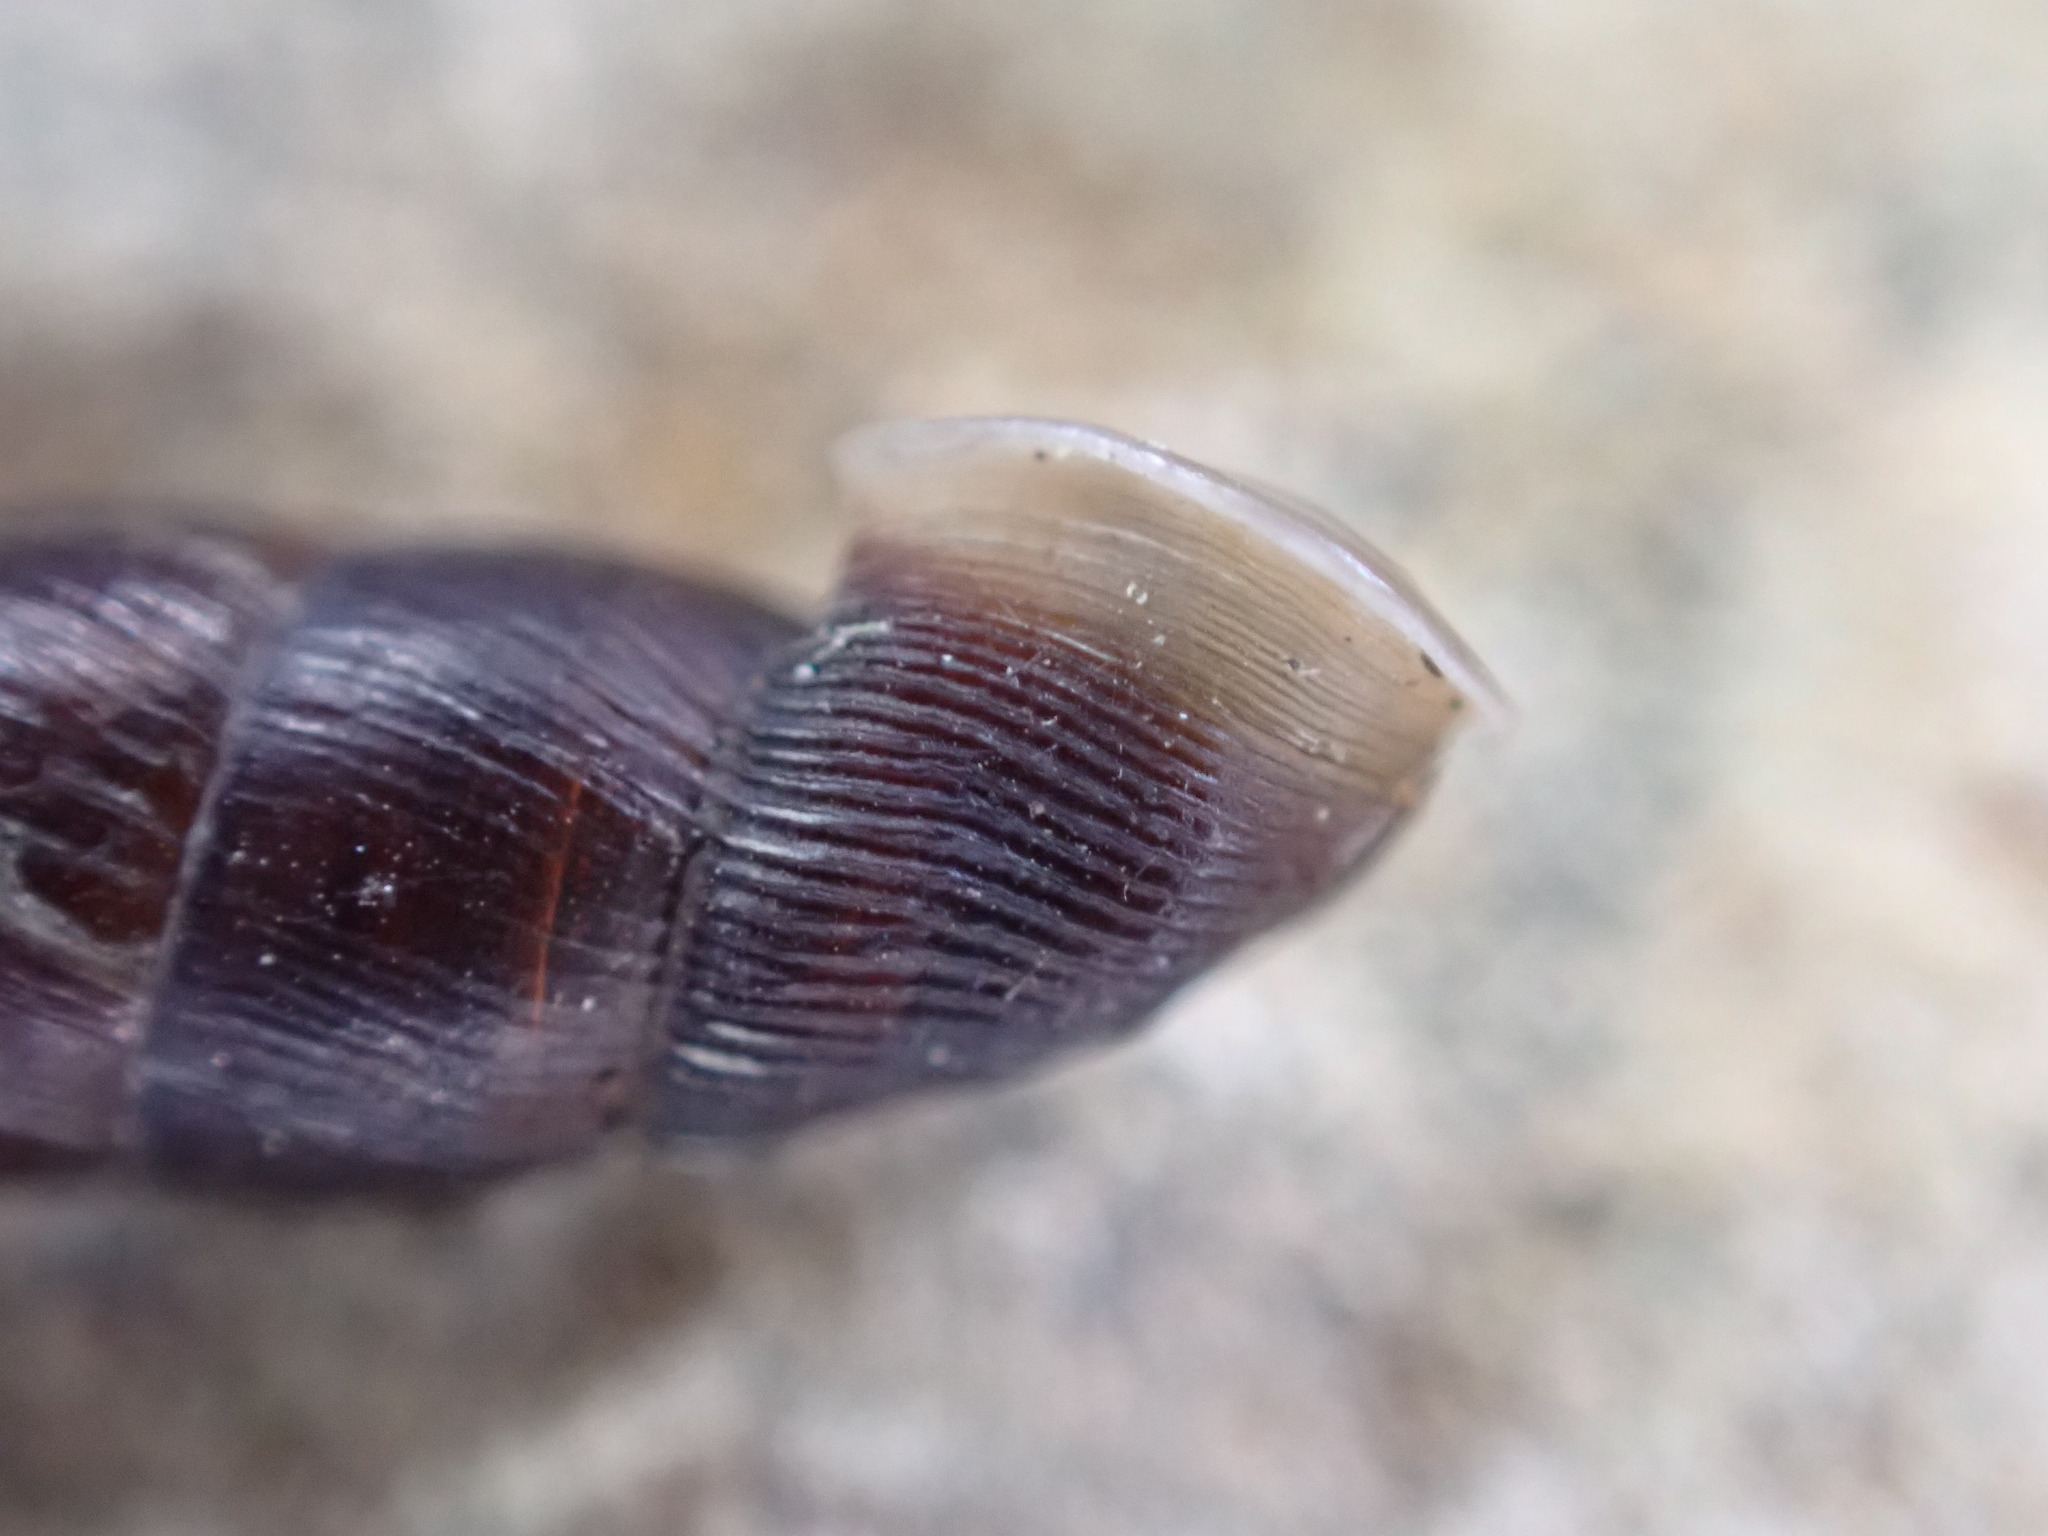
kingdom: Animalia
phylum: Mollusca
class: Gastropoda
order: Stylommatophora
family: Clausiliidae
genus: Clausilia
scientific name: Clausilia bidentata
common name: Two-toothed door snail
